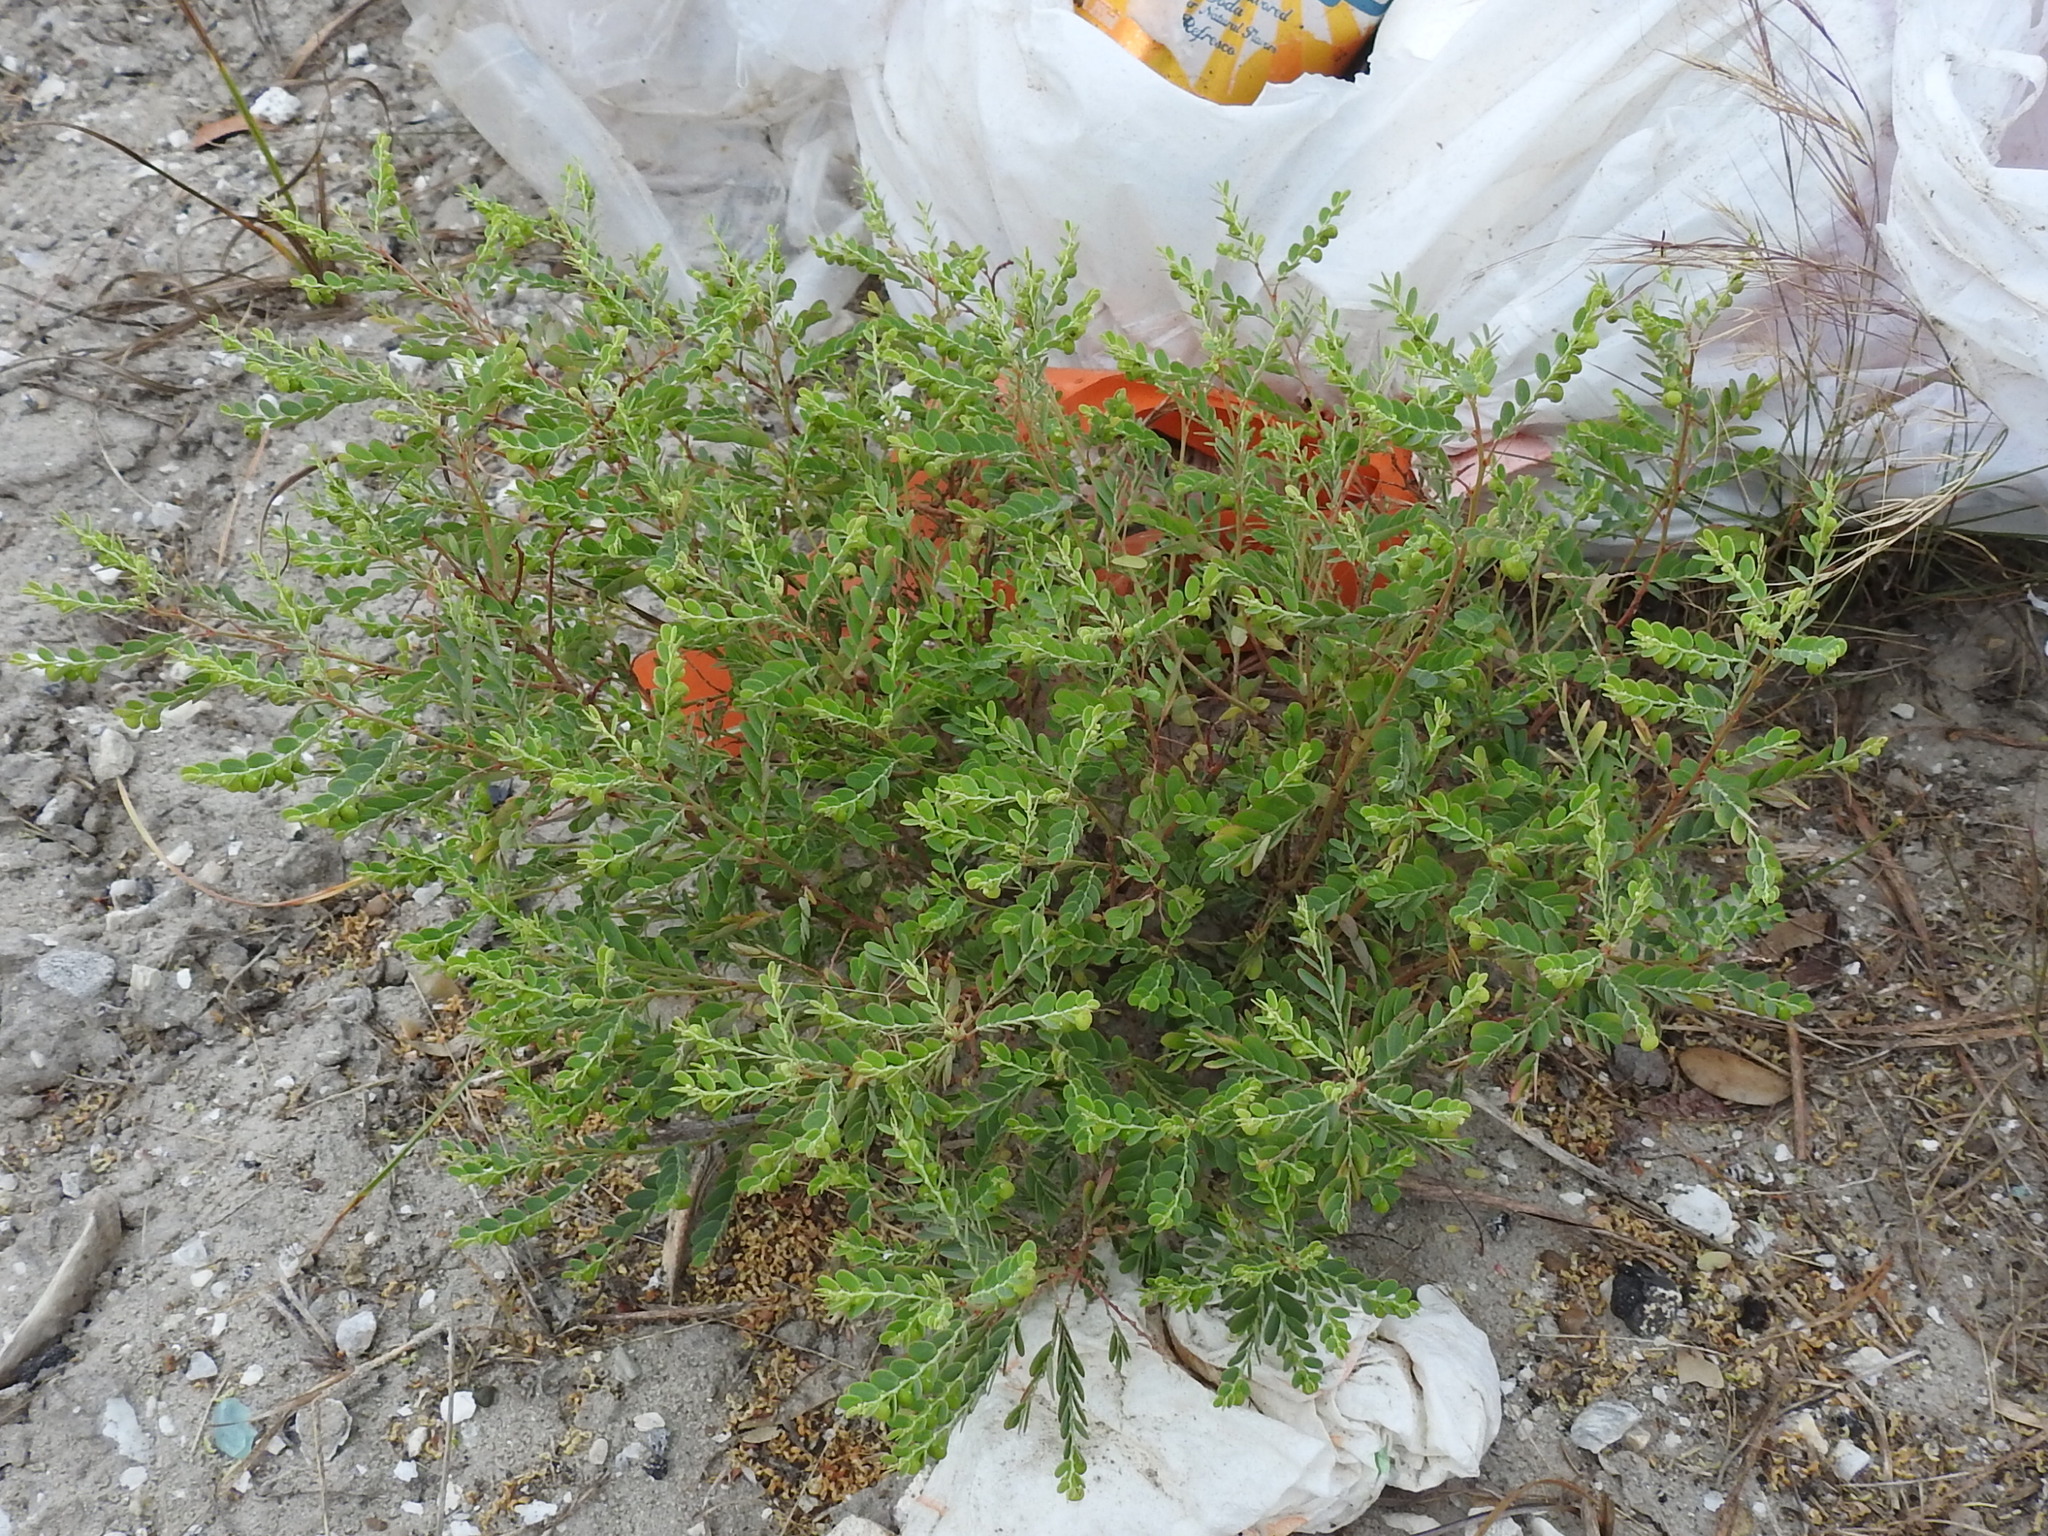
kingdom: Plantae
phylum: Tracheophyta
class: Magnoliopsida
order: Malpighiales
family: Phyllanthaceae
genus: Phyllanthus
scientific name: Phyllanthus abnormis
